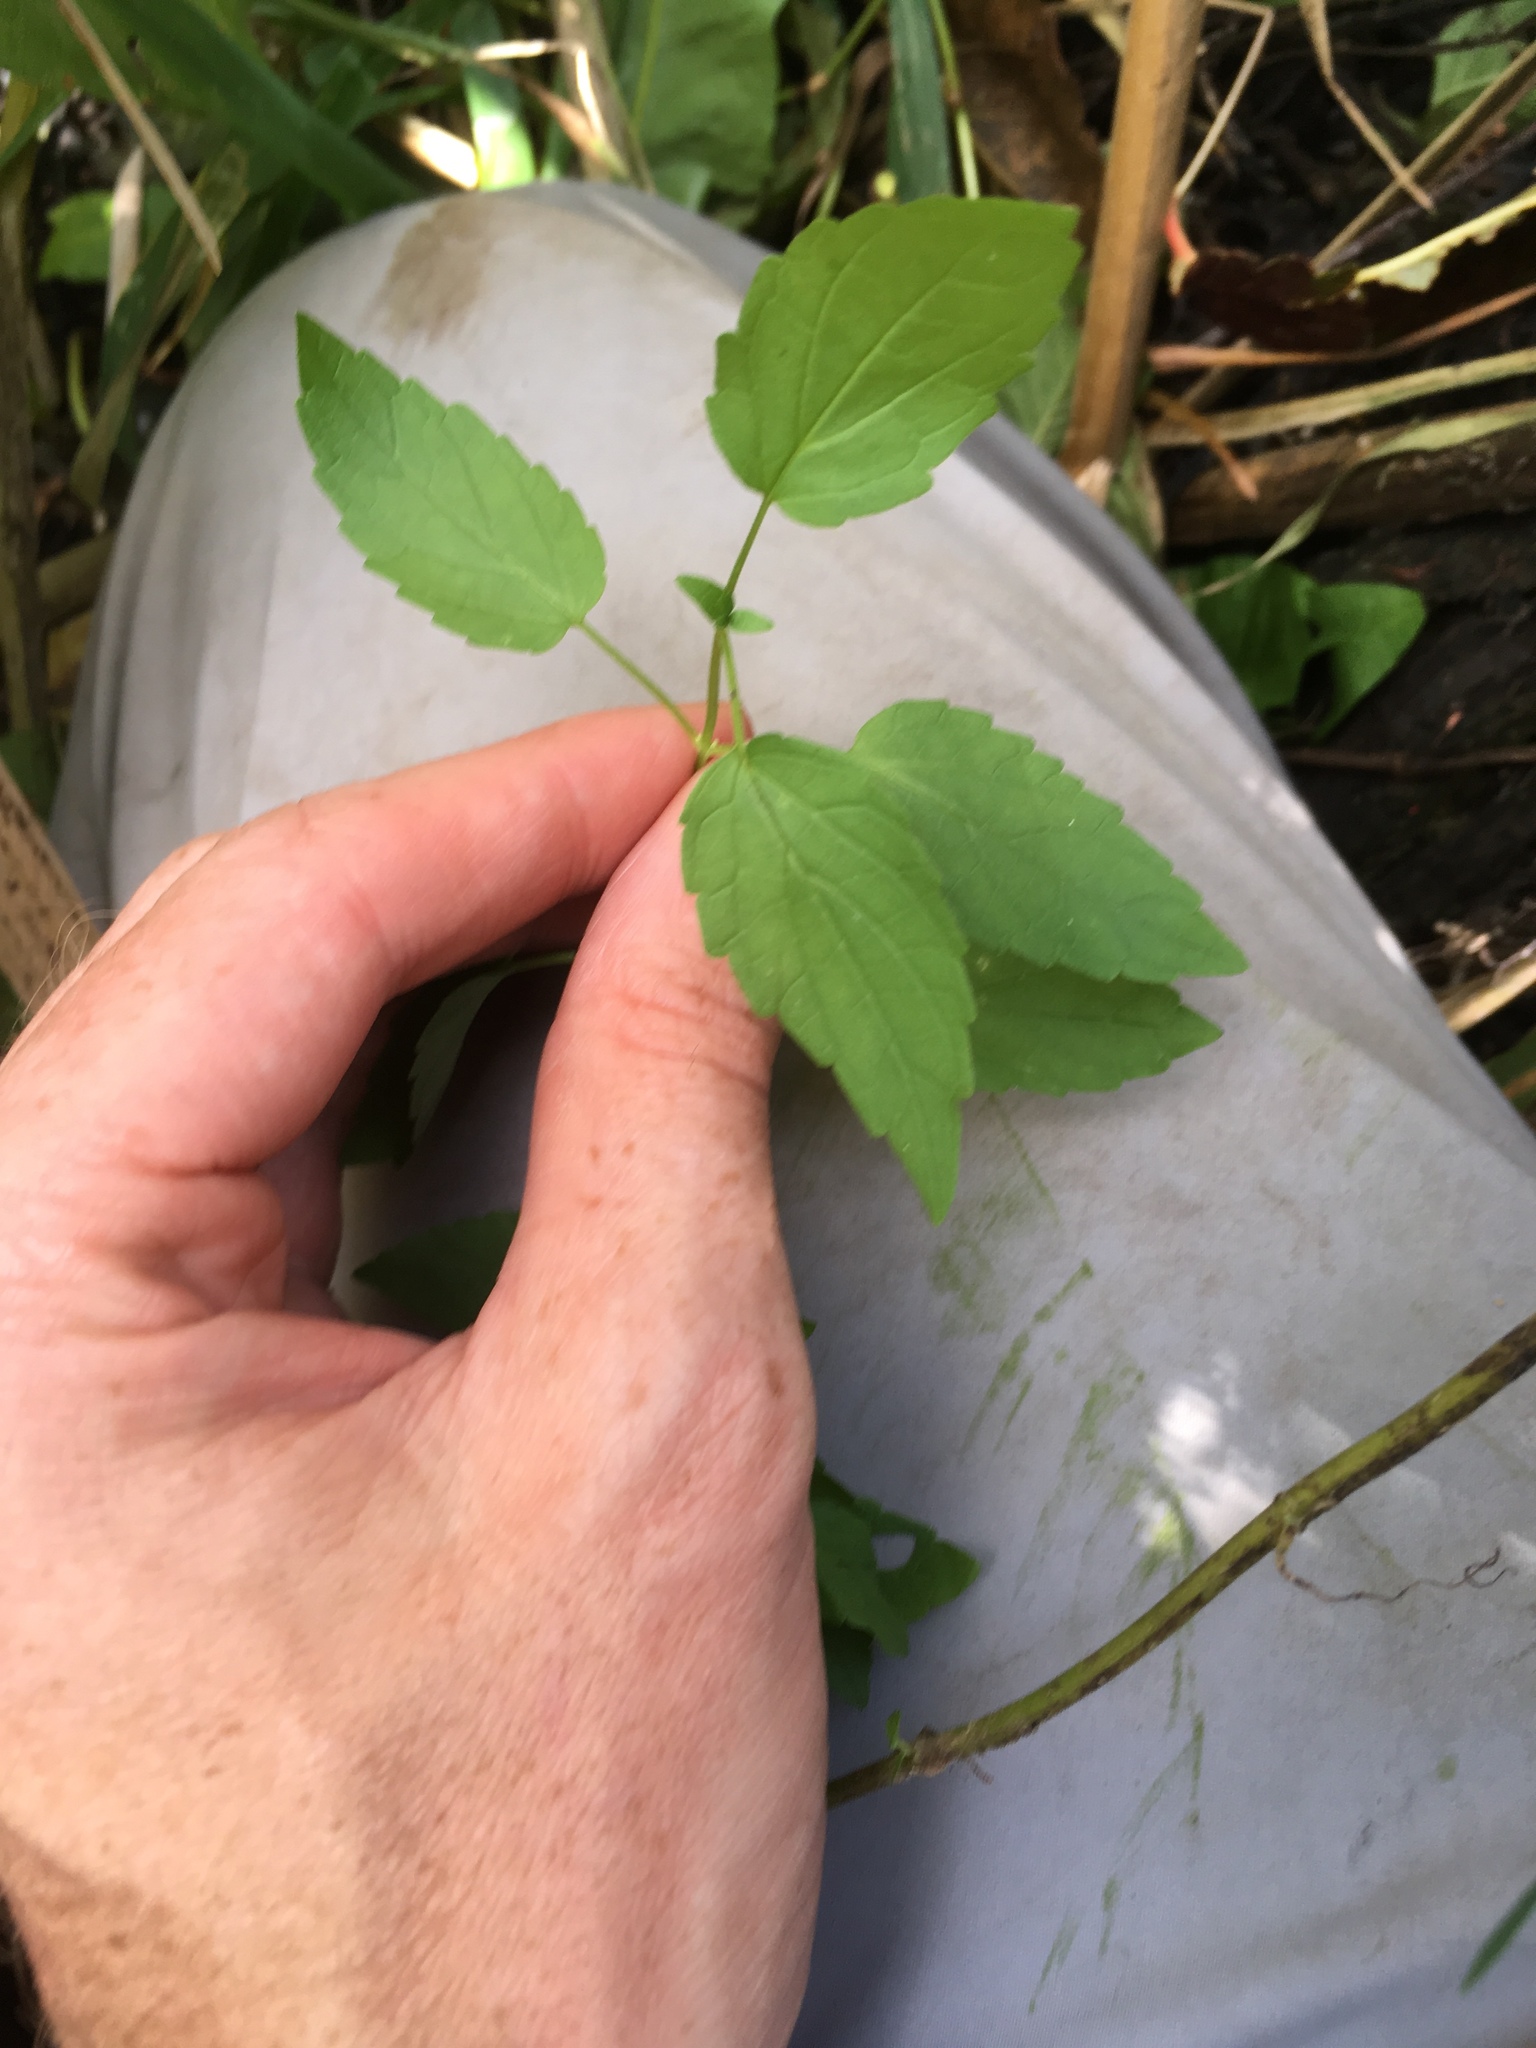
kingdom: Plantae
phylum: Tracheophyta
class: Magnoliopsida
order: Lamiales
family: Lamiaceae
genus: Scutellaria
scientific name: Scutellaria lateriflora
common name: Blue skullcap
